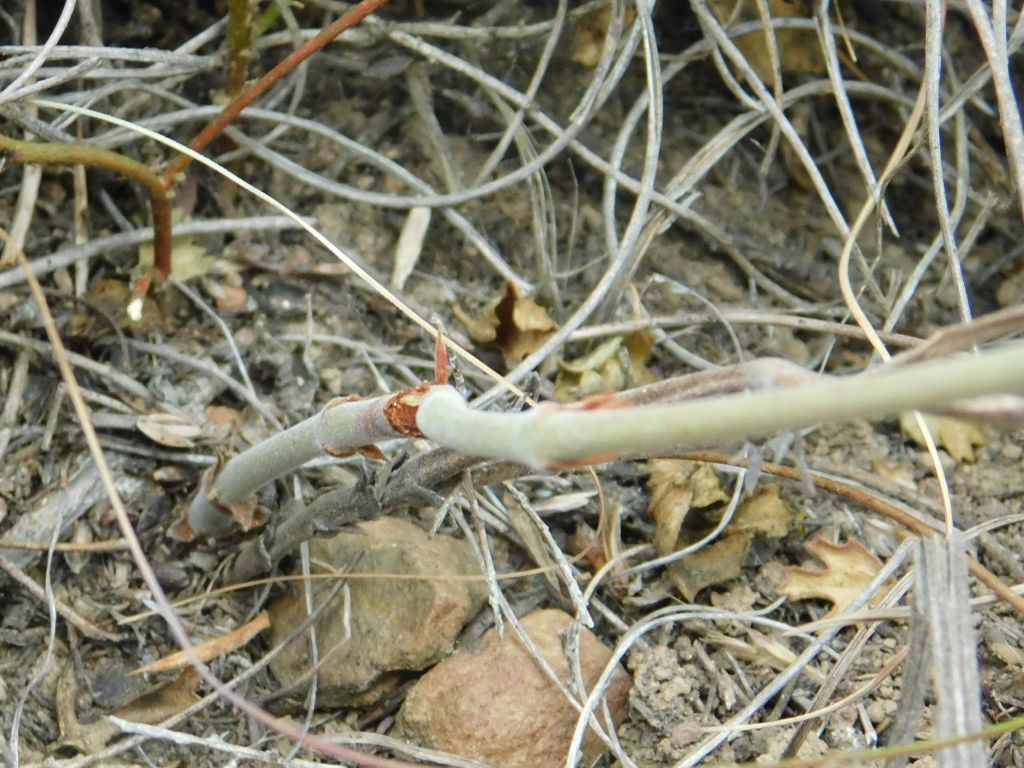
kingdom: Plantae
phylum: Tracheophyta
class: Magnoliopsida
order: Geraniales
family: Geraniaceae
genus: Pelargonium
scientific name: Pelargonium pillansii
